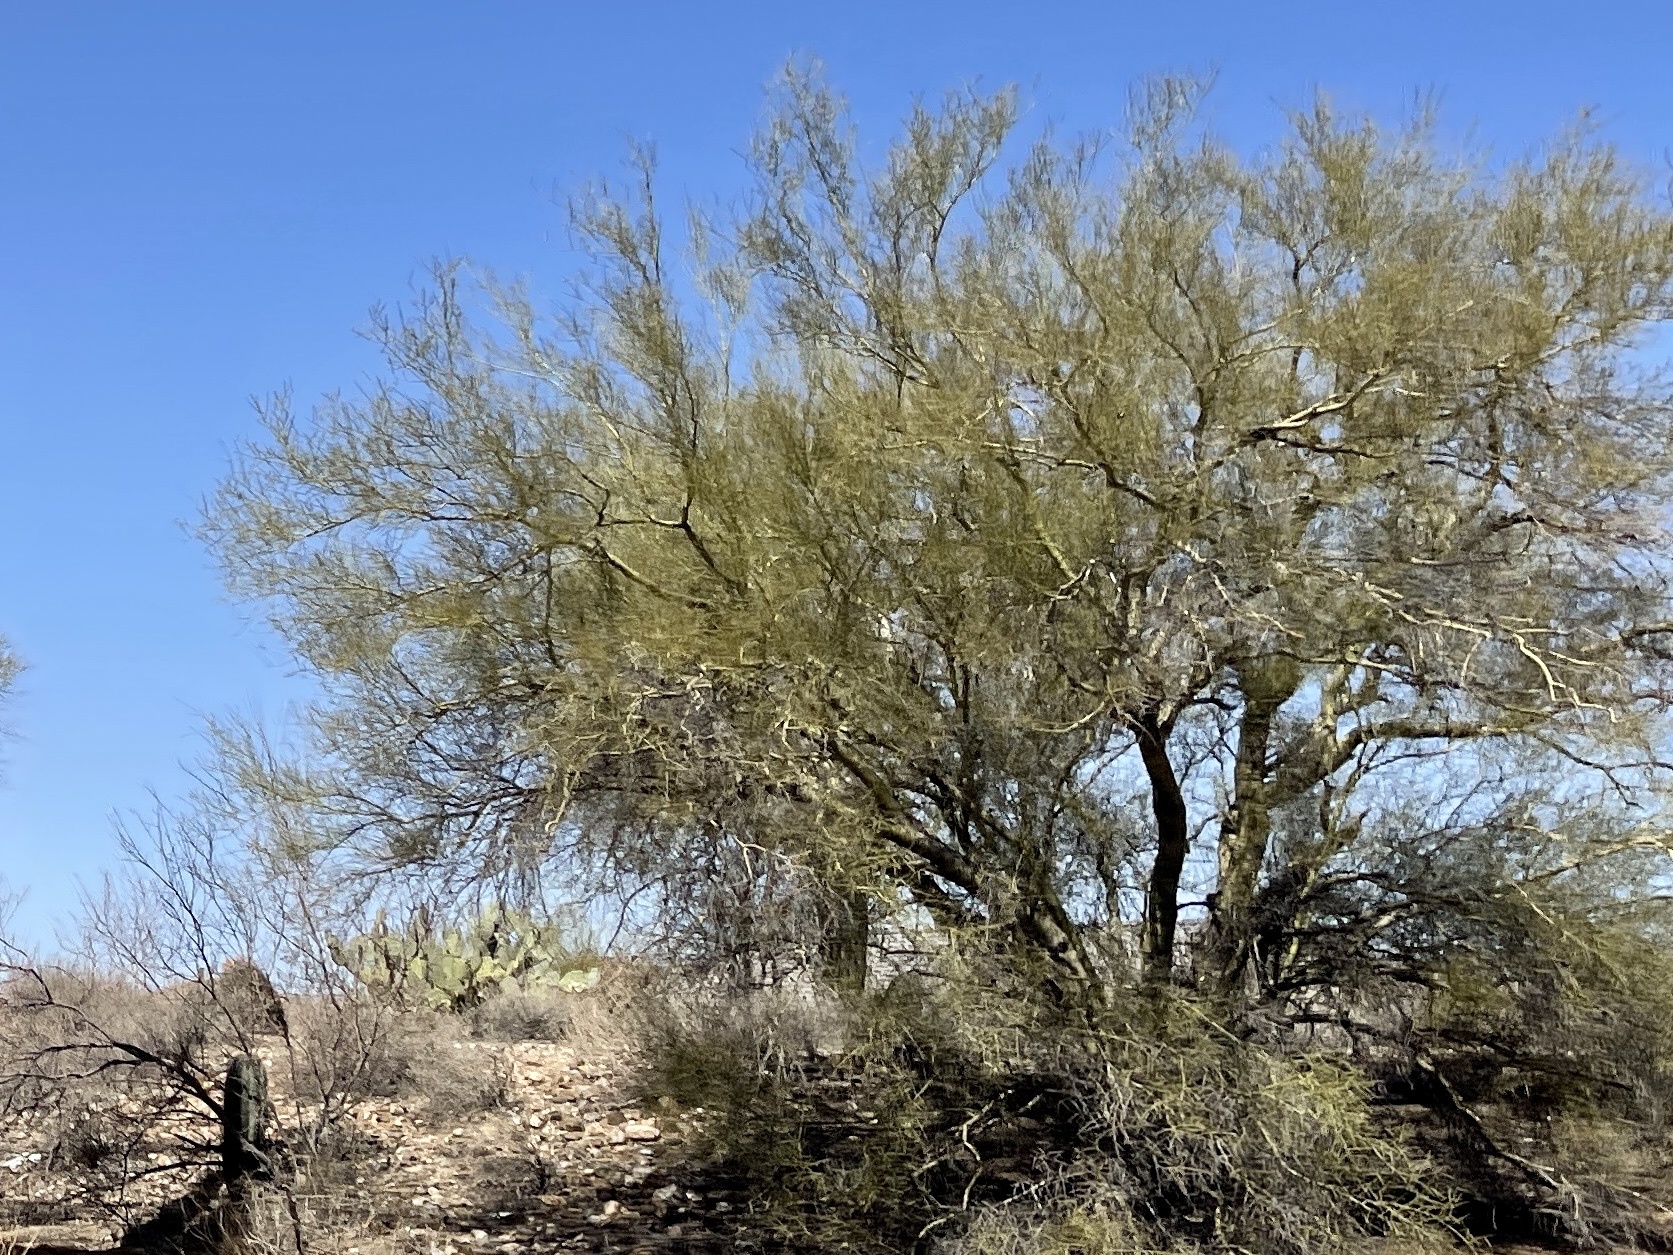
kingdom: Plantae
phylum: Tracheophyta
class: Magnoliopsida
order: Fabales
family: Fabaceae
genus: Parkinsonia
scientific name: Parkinsonia microphylla
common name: Yellow paloverde
